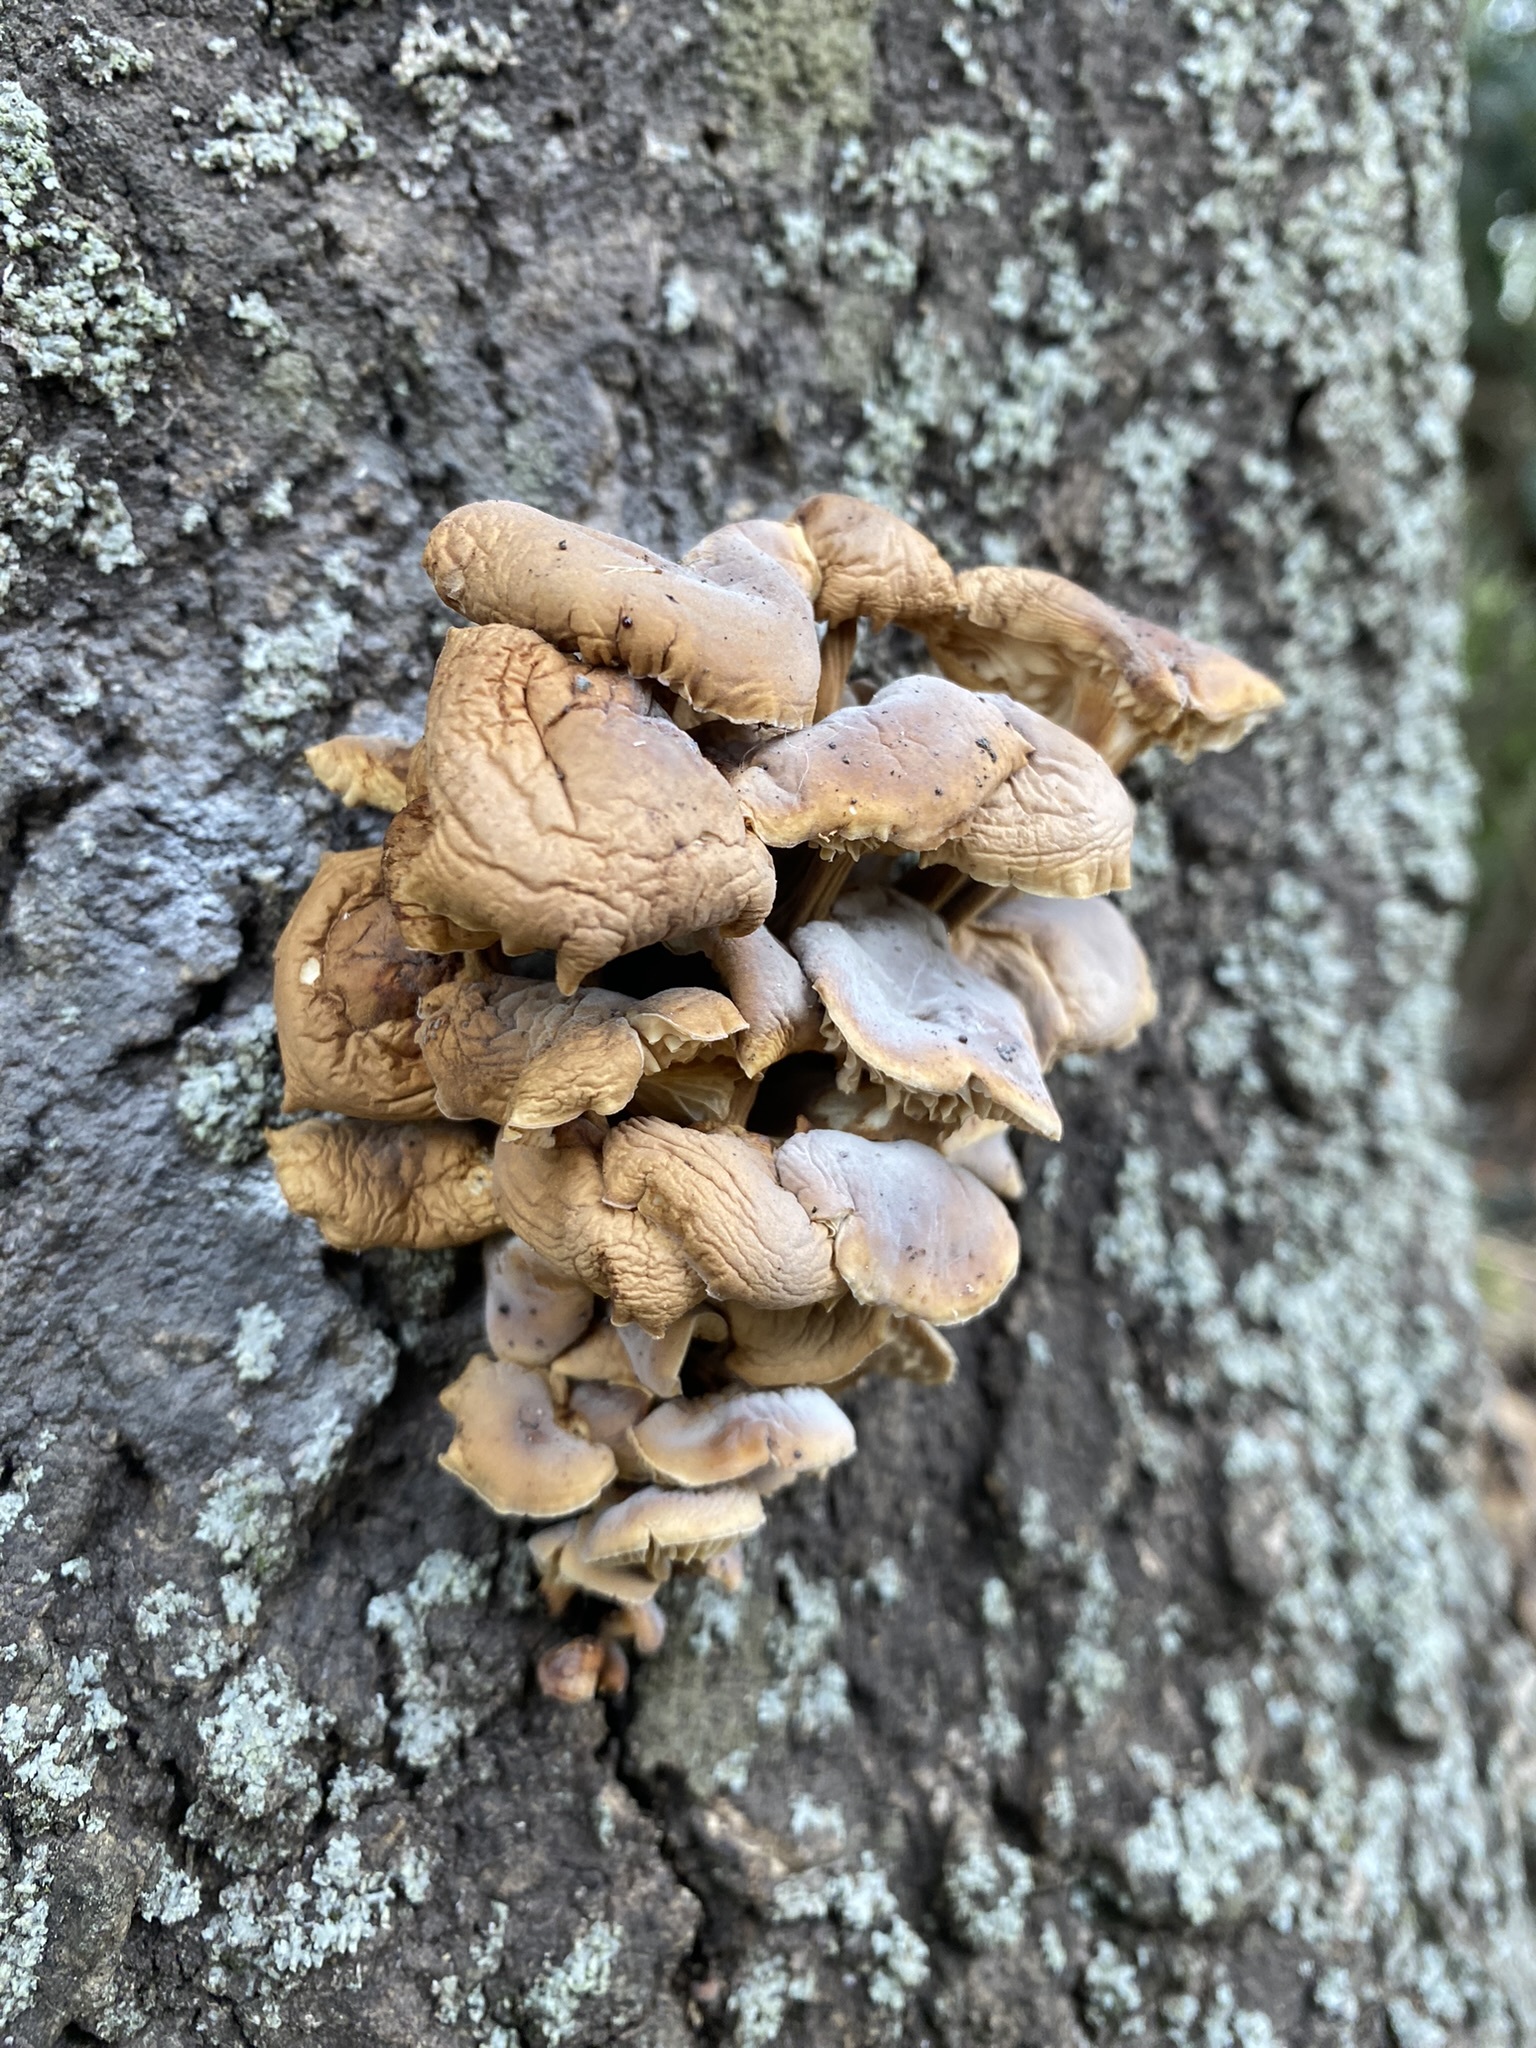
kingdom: Fungi
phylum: Basidiomycota
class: Agaricomycetes
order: Agaricales
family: Physalacriaceae
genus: Flammulina
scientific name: Flammulina velutipes
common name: Velvet shank
